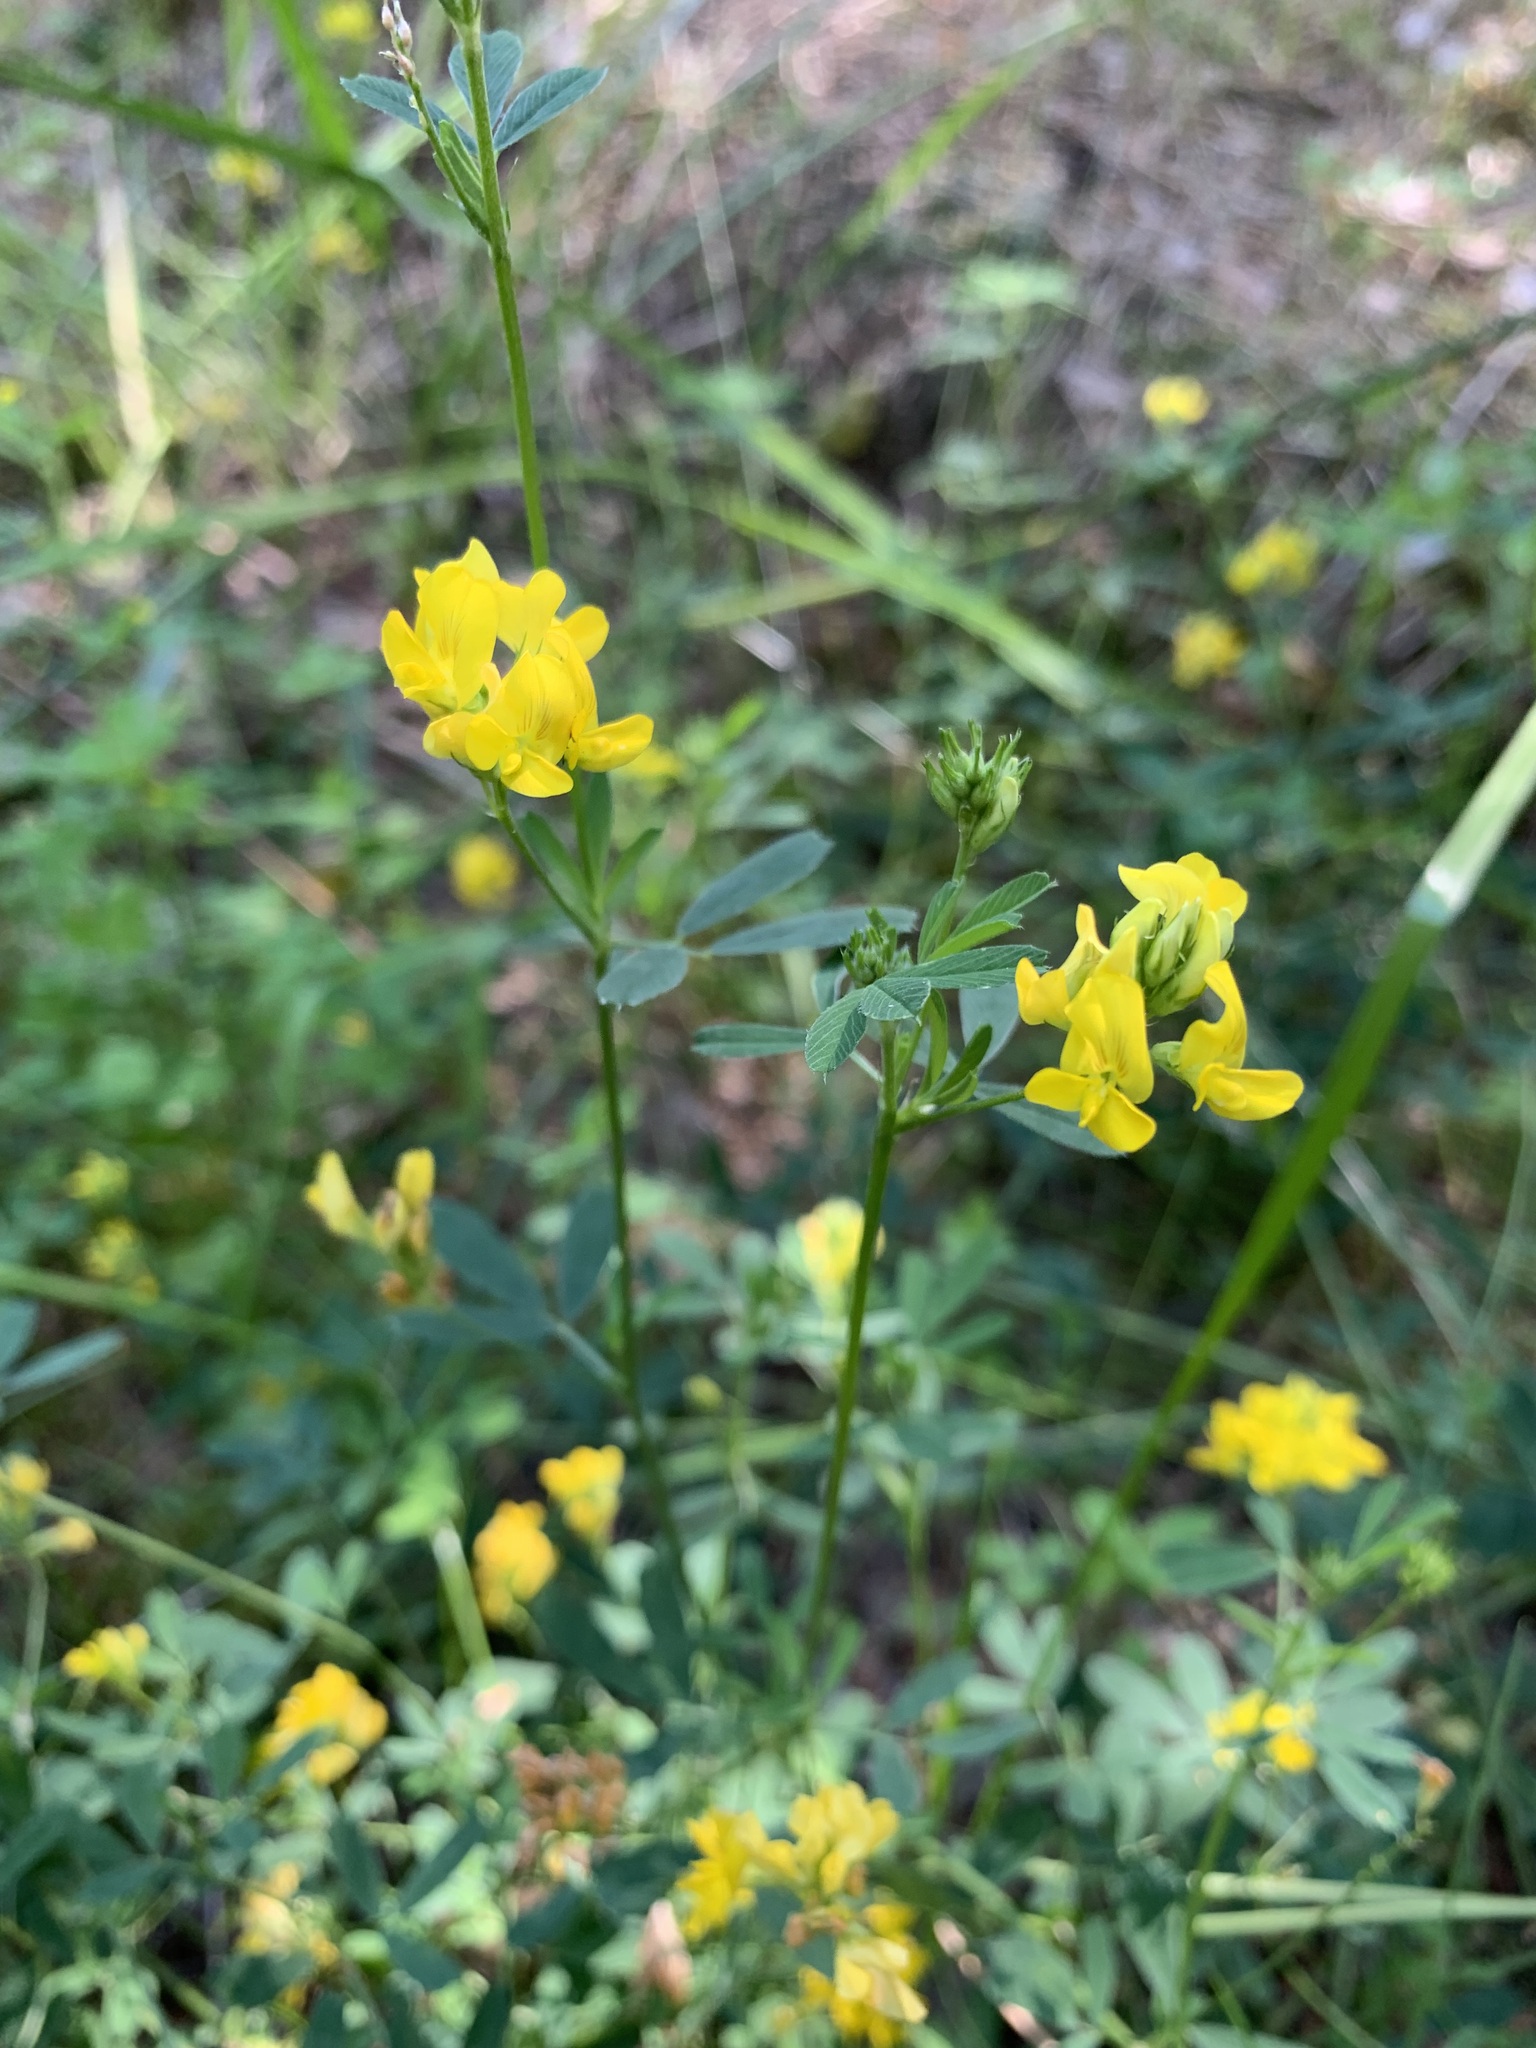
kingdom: Plantae
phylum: Tracheophyta
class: Magnoliopsida
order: Fabales
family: Fabaceae
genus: Medicago
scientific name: Medicago falcata
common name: Sickle medick
